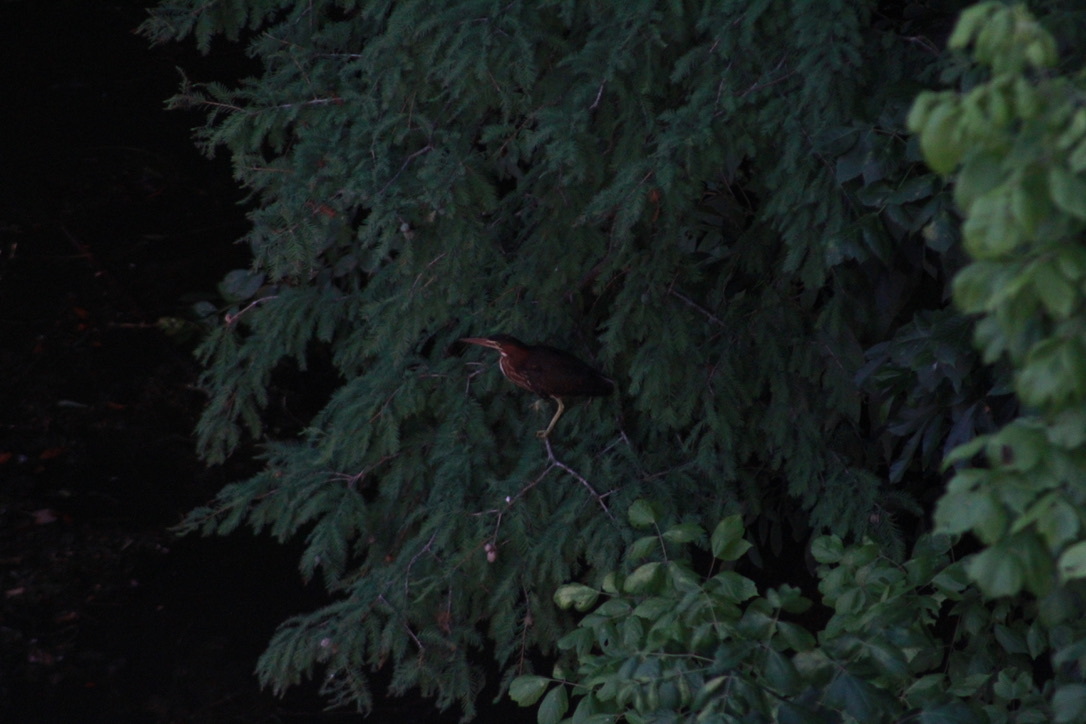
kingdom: Animalia
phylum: Chordata
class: Aves
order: Pelecaniformes
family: Ardeidae
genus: Butorides
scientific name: Butorides virescens
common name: Green heron
